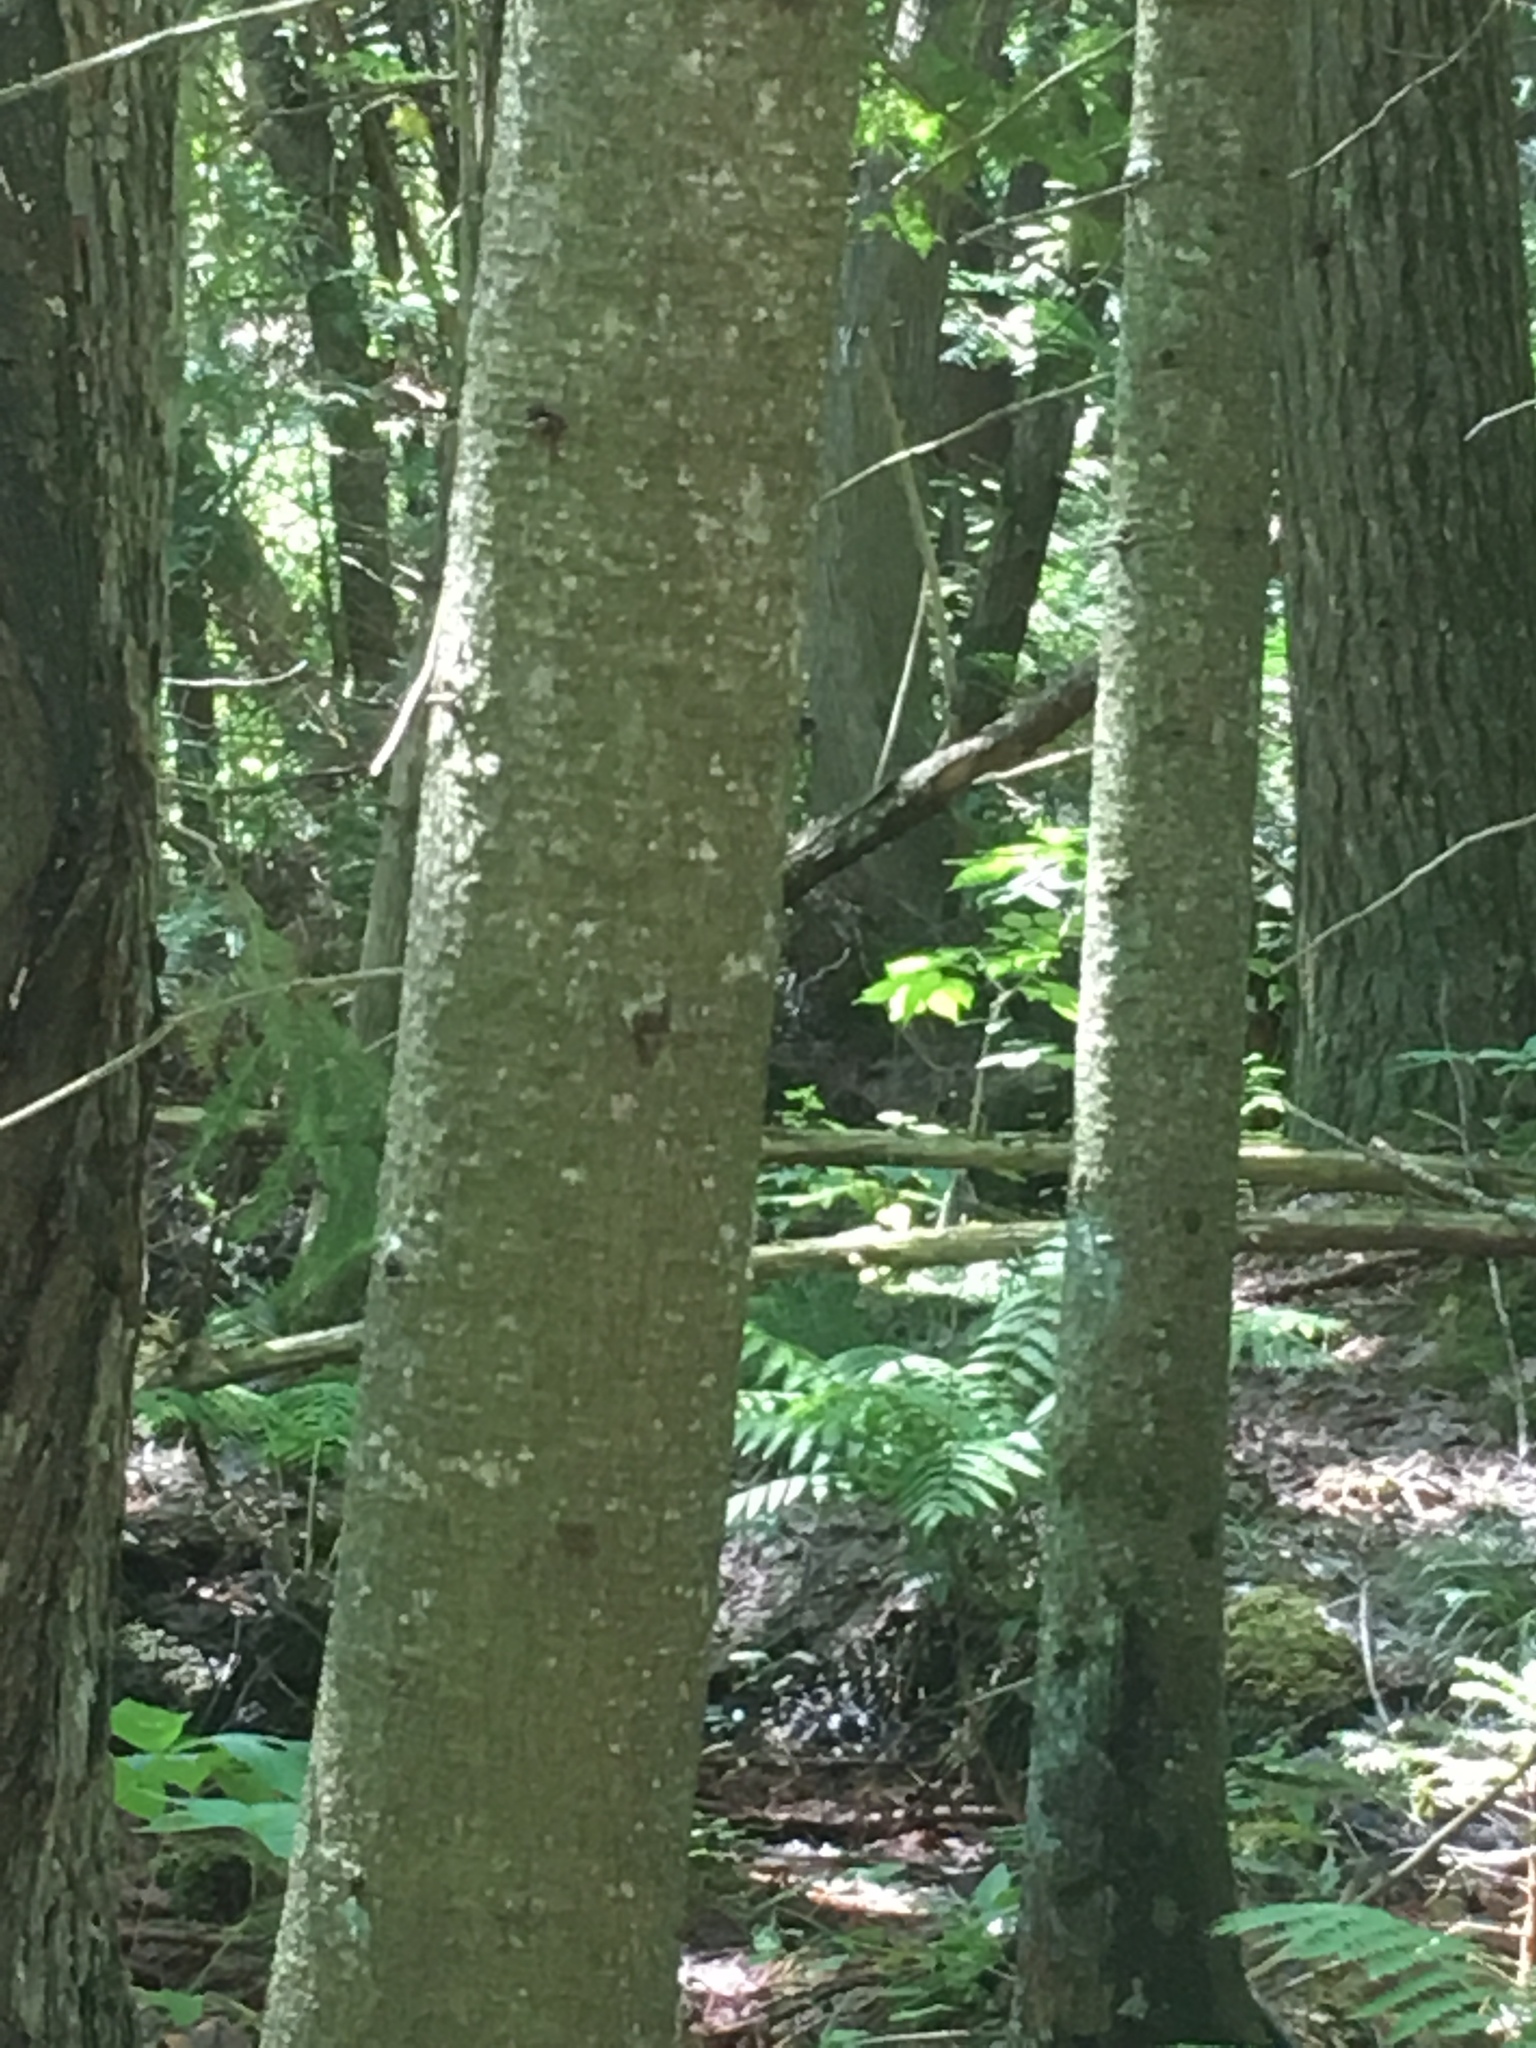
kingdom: Plantae
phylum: Tracheophyta
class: Pinopsida
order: Pinales
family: Pinaceae
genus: Abies
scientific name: Abies balsamea
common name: Balsam fir
